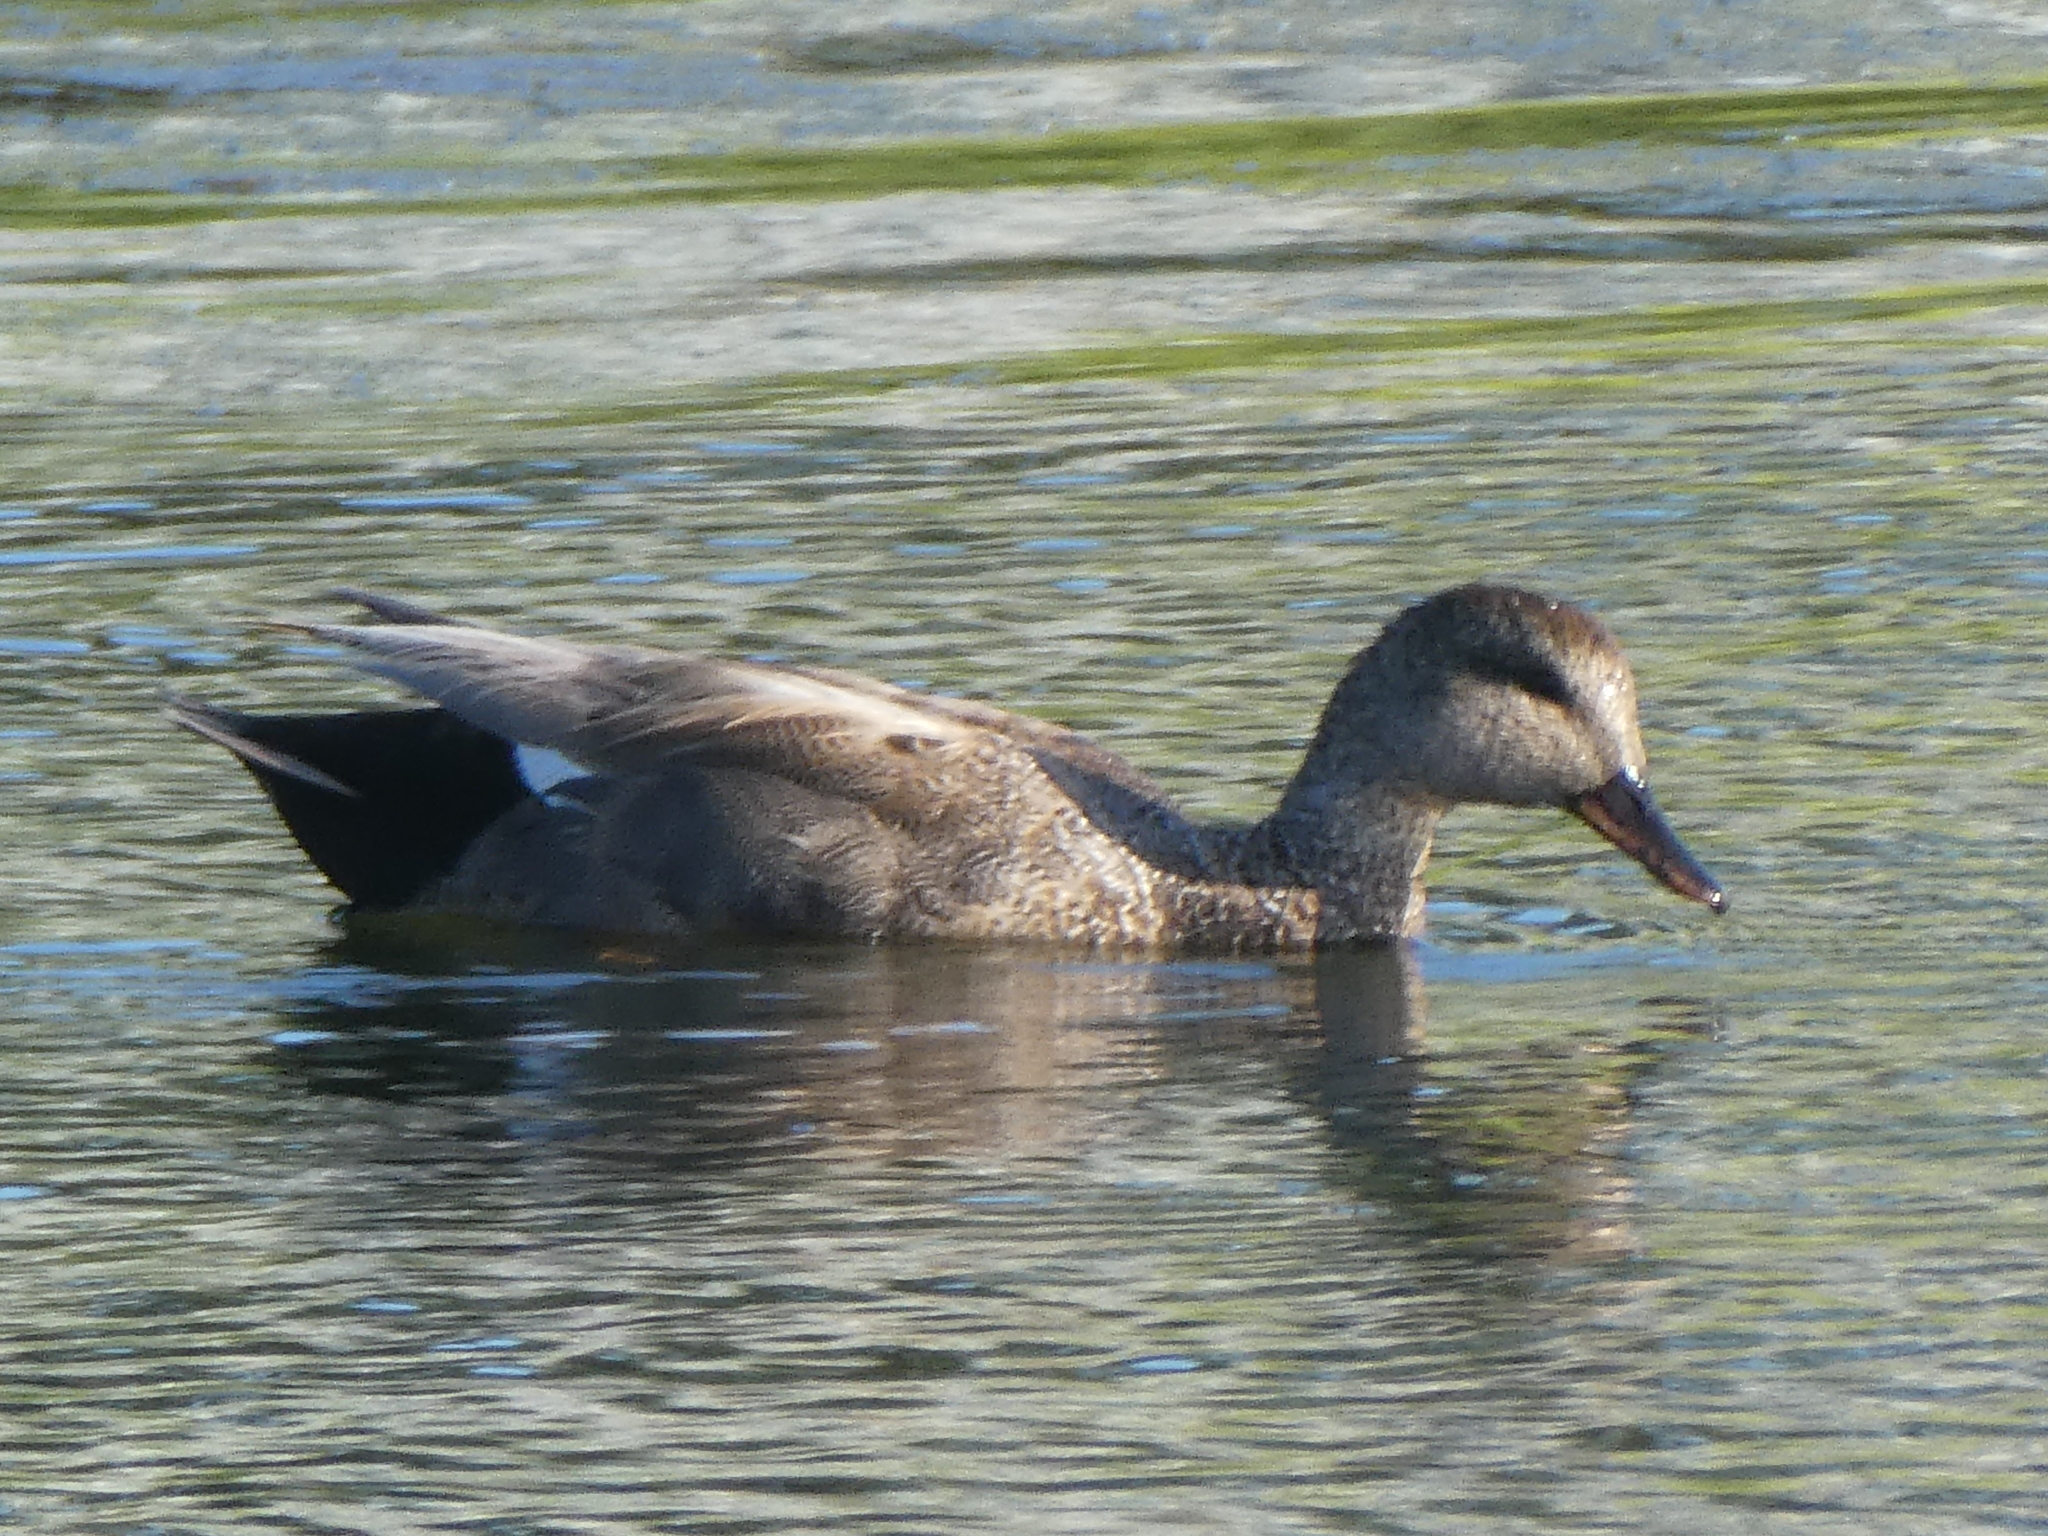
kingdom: Animalia
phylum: Chordata
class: Aves
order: Anseriformes
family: Anatidae
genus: Mareca
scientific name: Mareca strepera
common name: Gadwall
